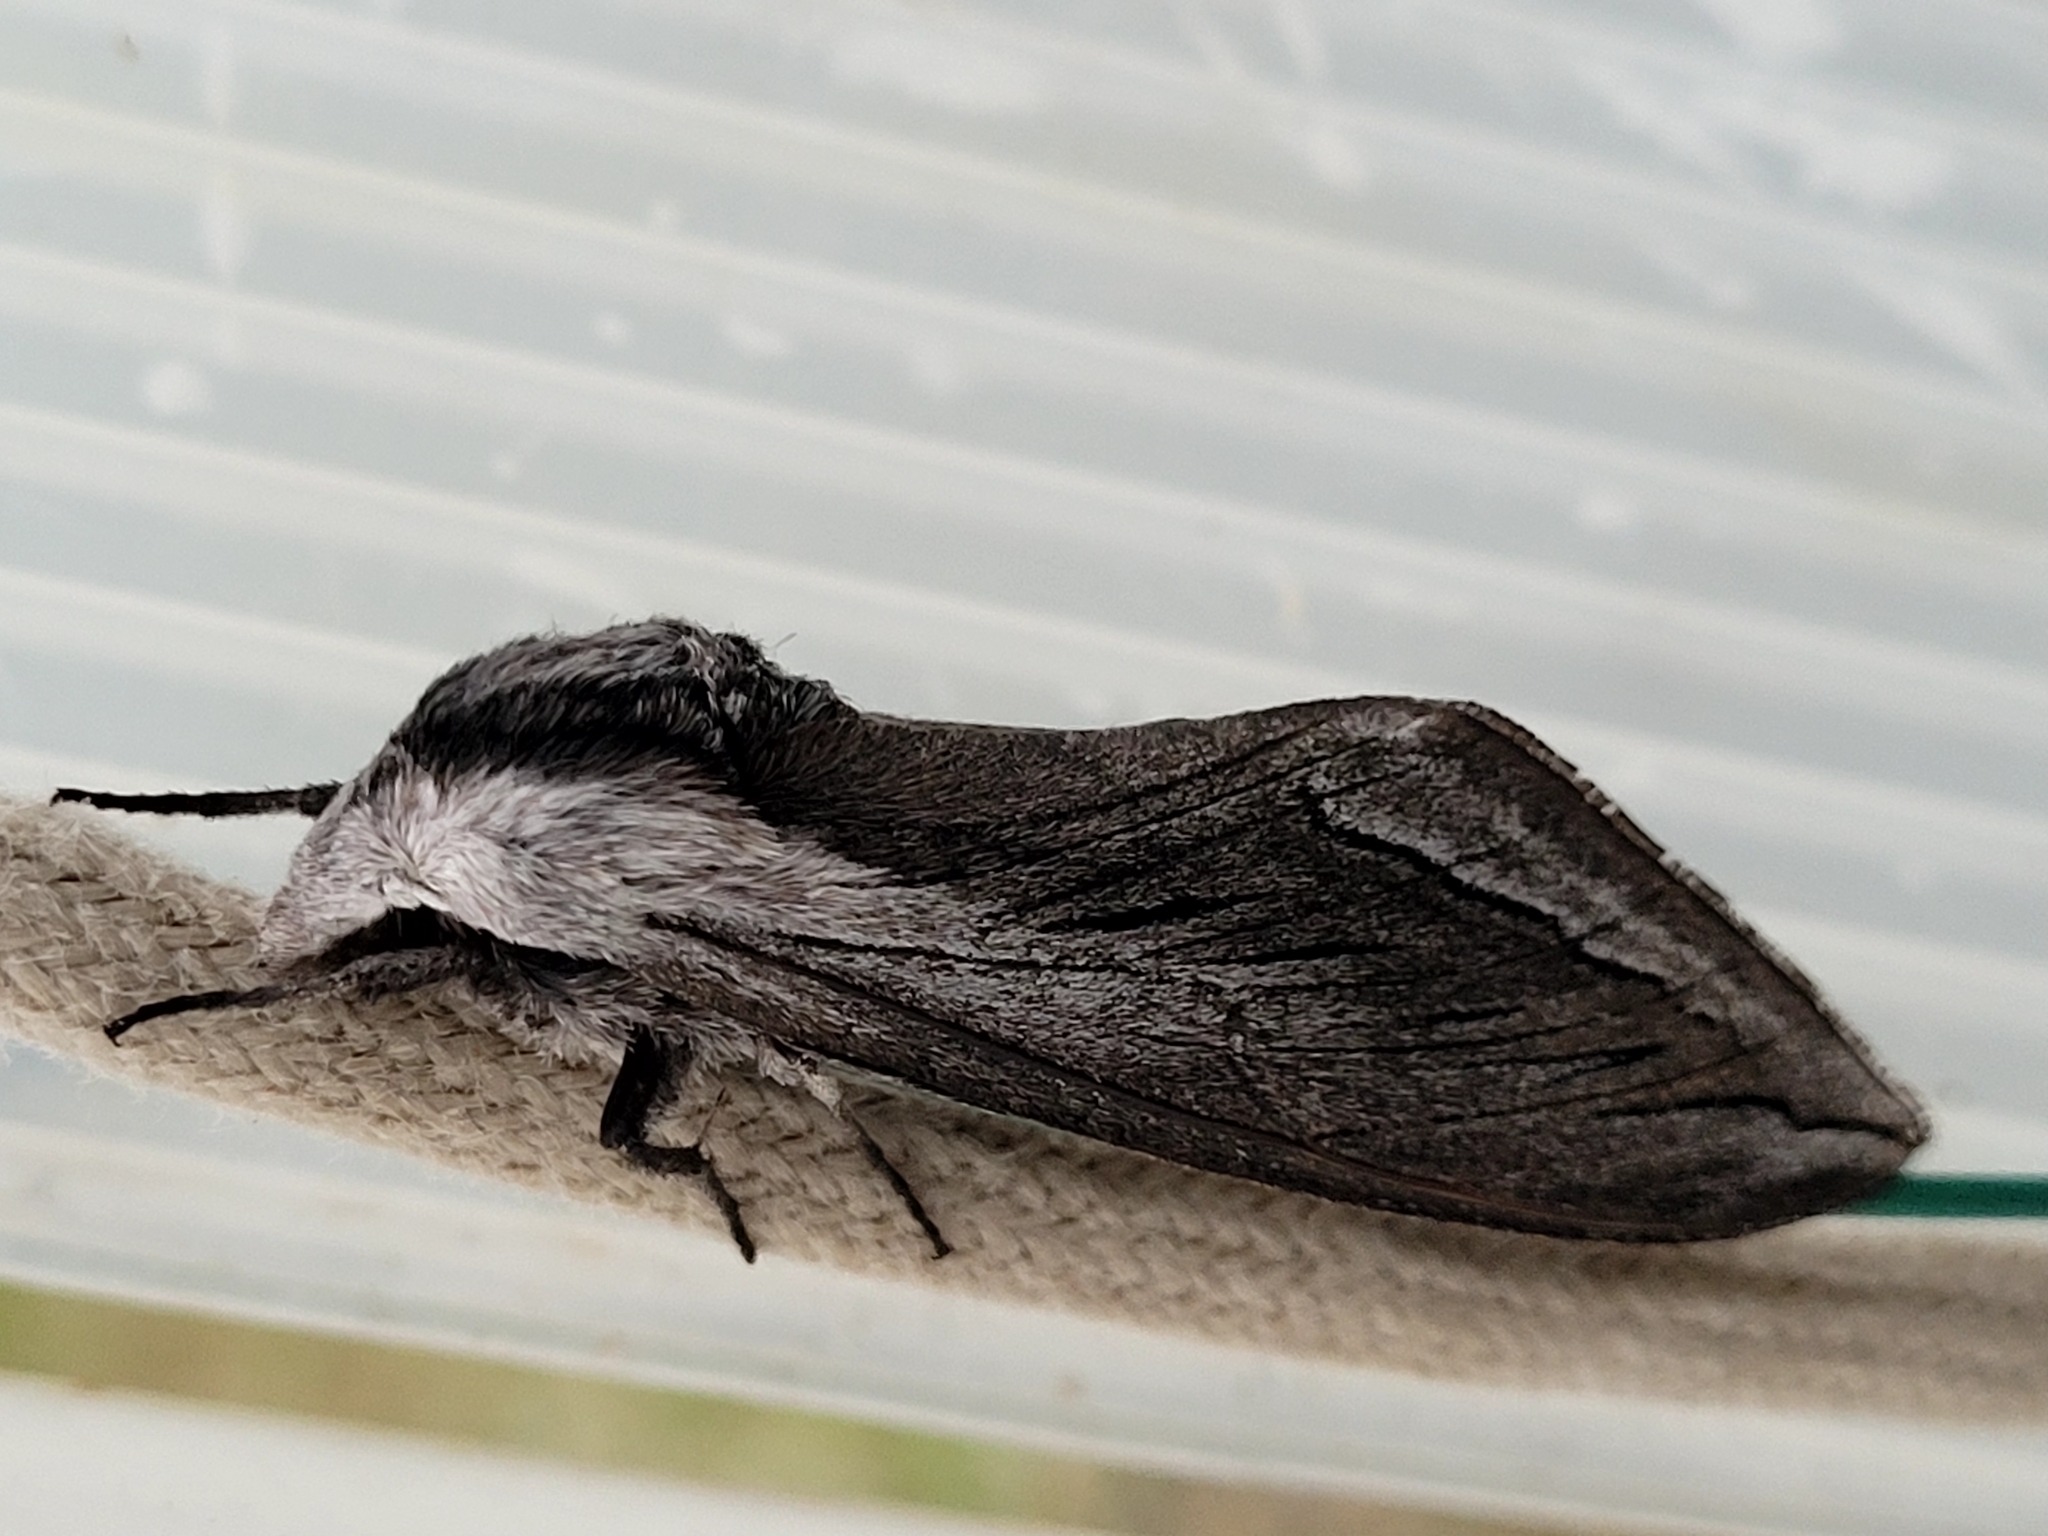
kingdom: Animalia
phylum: Arthropoda
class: Insecta
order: Lepidoptera
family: Sphingidae
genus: Sphinx
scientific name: Sphinx vashti
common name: Snowberry sphinx
